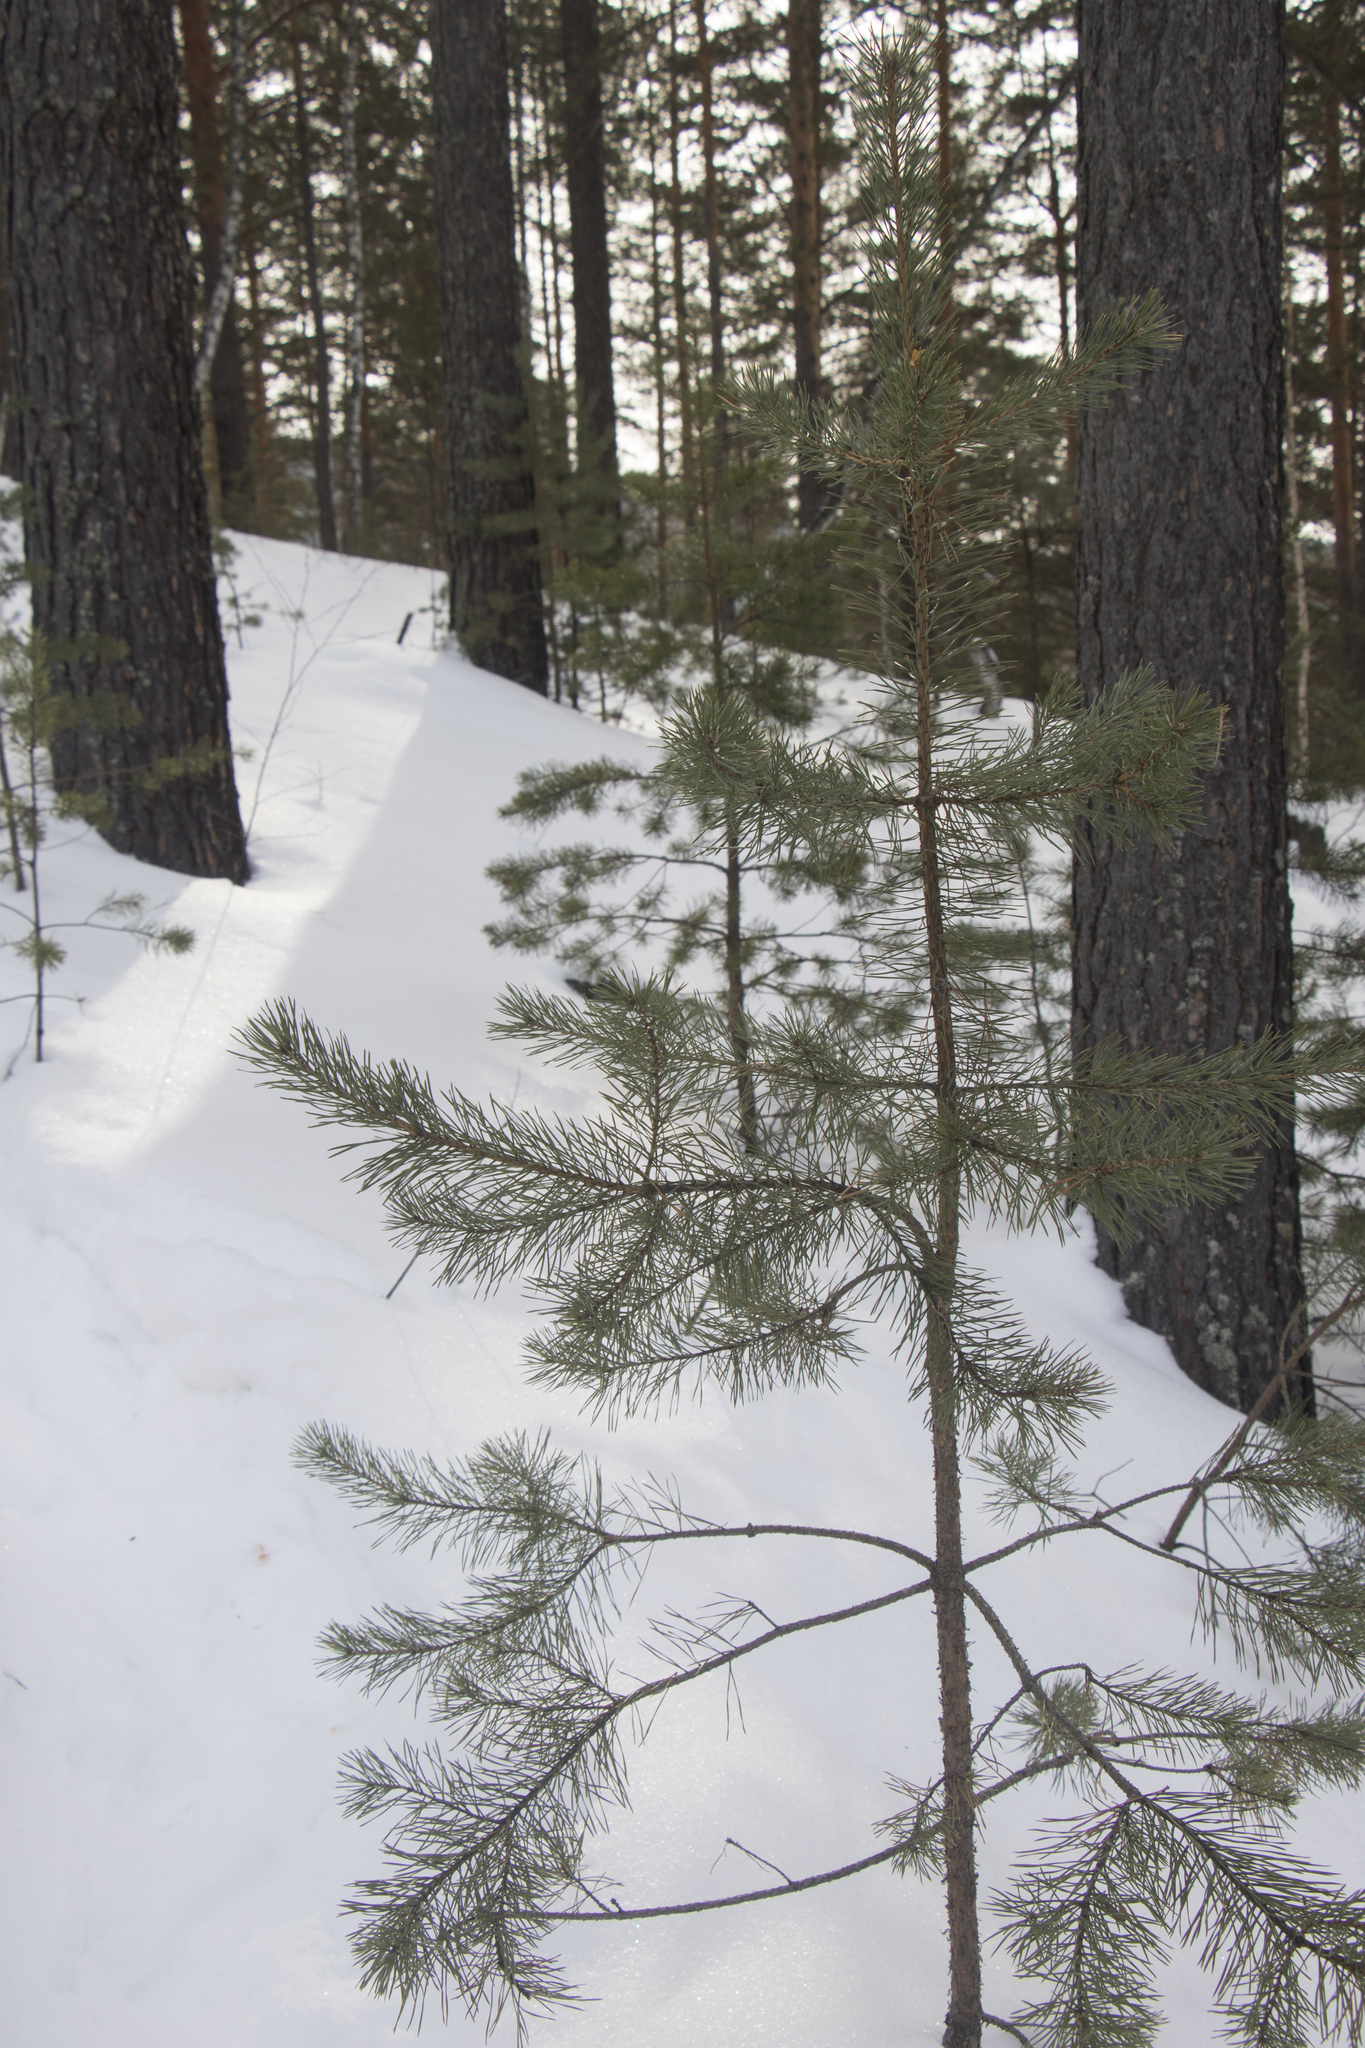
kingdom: Plantae
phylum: Tracheophyta
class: Pinopsida
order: Pinales
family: Pinaceae
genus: Pinus
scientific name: Pinus sylvestris
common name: Scots pine
